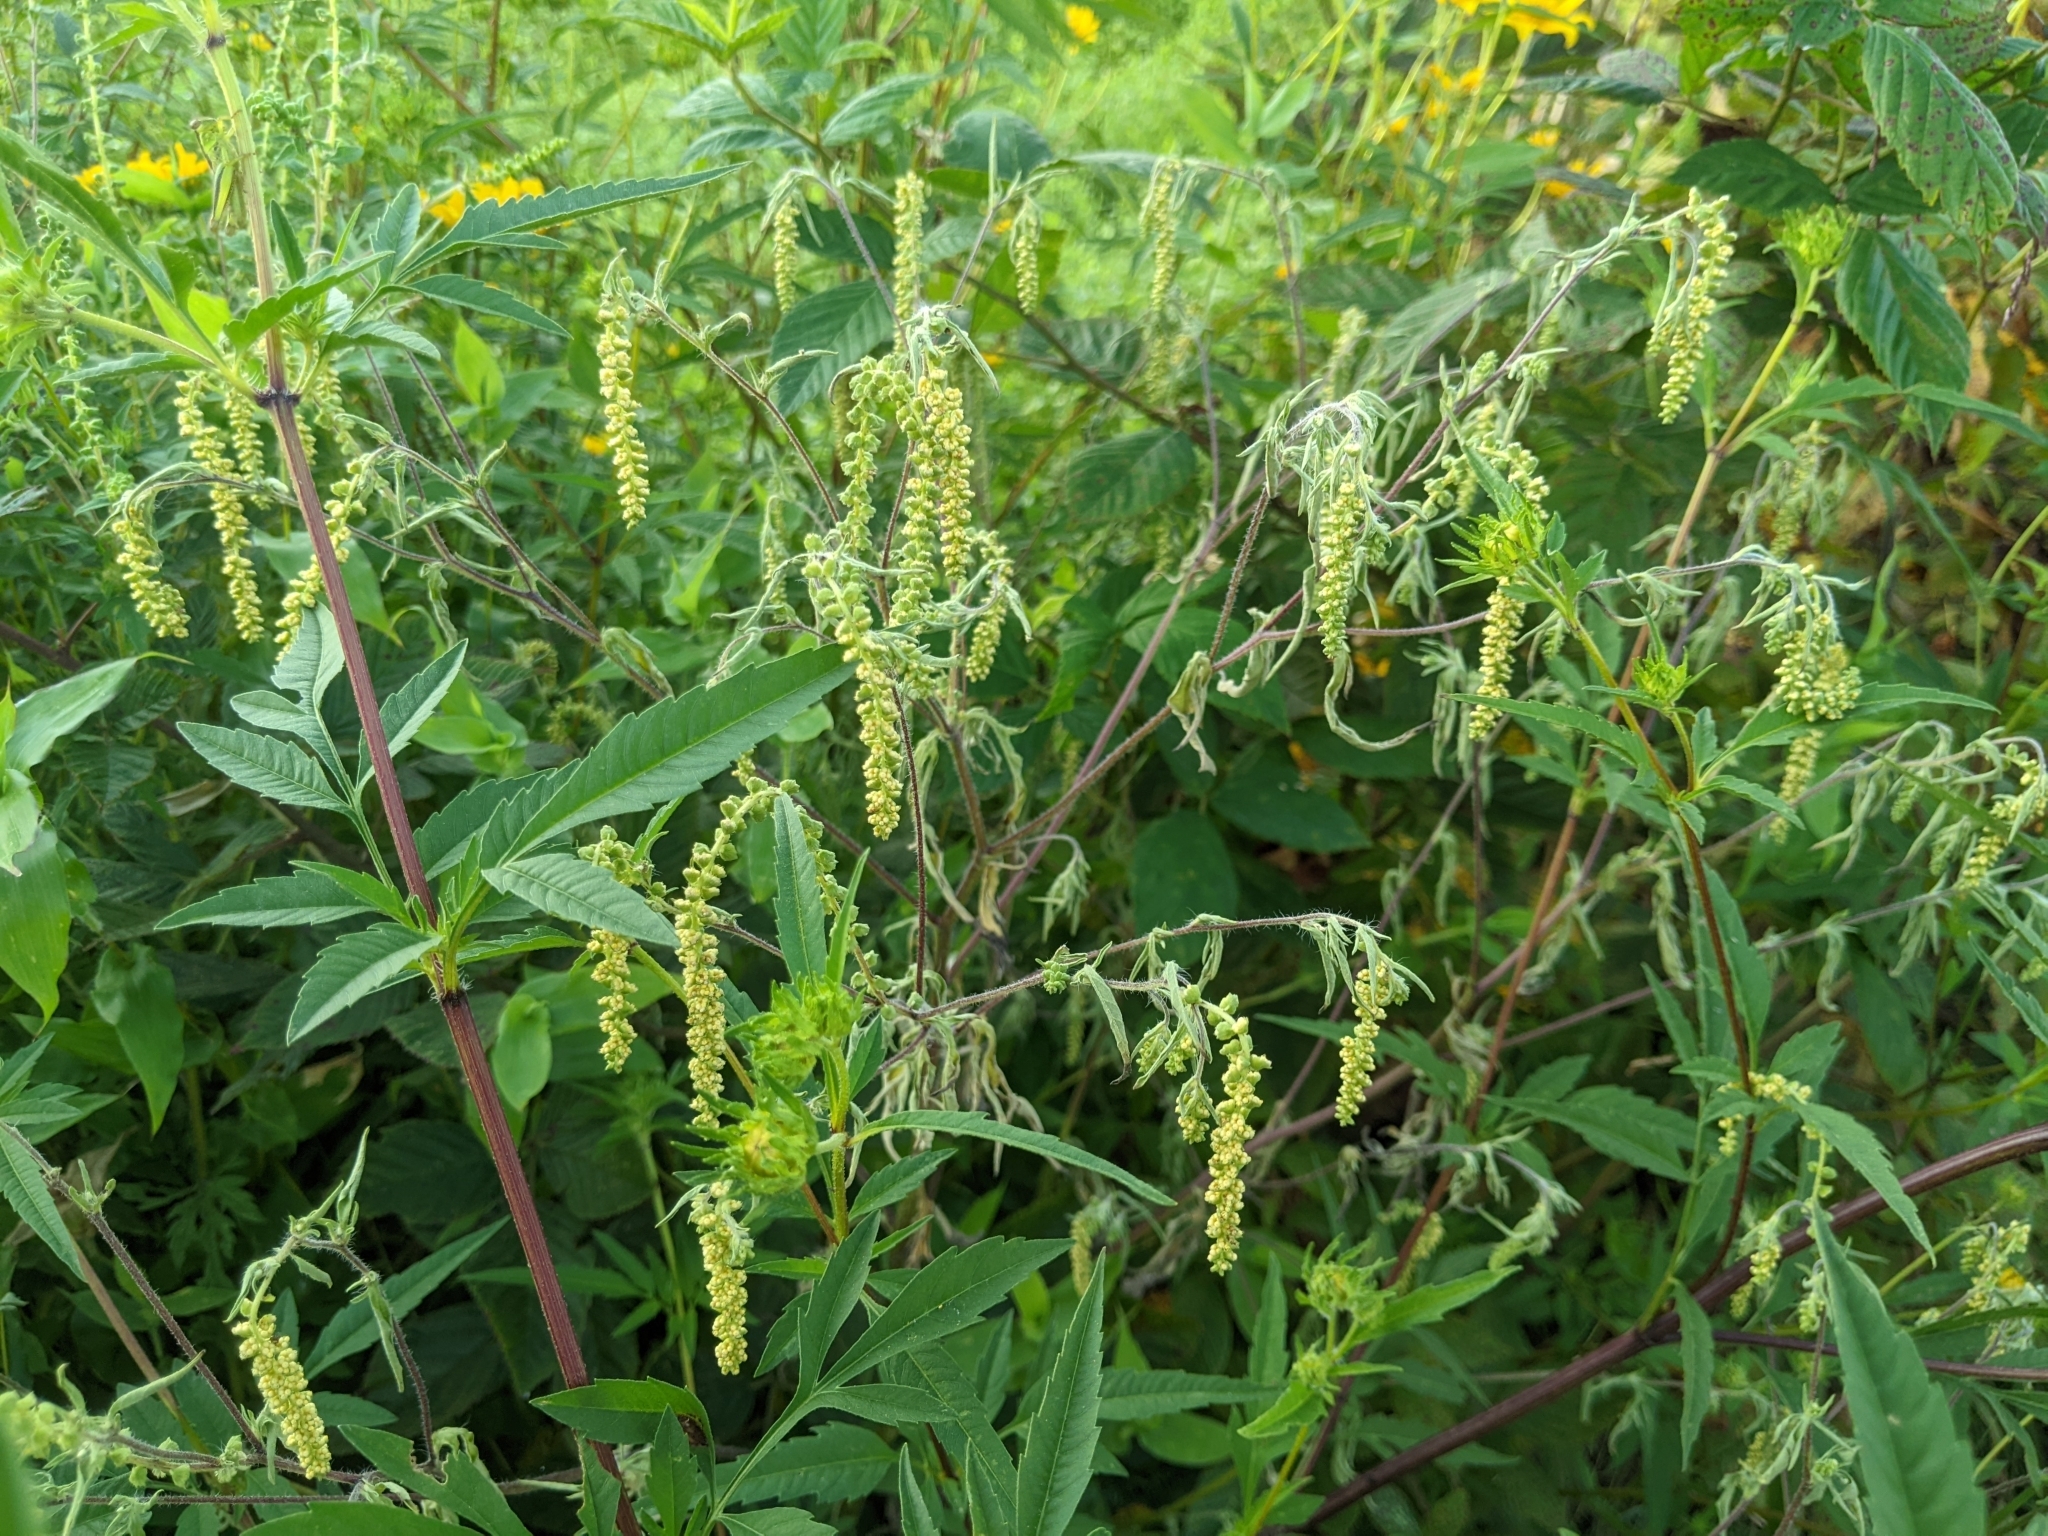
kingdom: Plantae
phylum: Tracheophyta
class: Magnoliopsida
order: Asterales
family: Asteraceae
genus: Ambrosia
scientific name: Ambrosia artemisiifolia
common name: Annual ragweed
